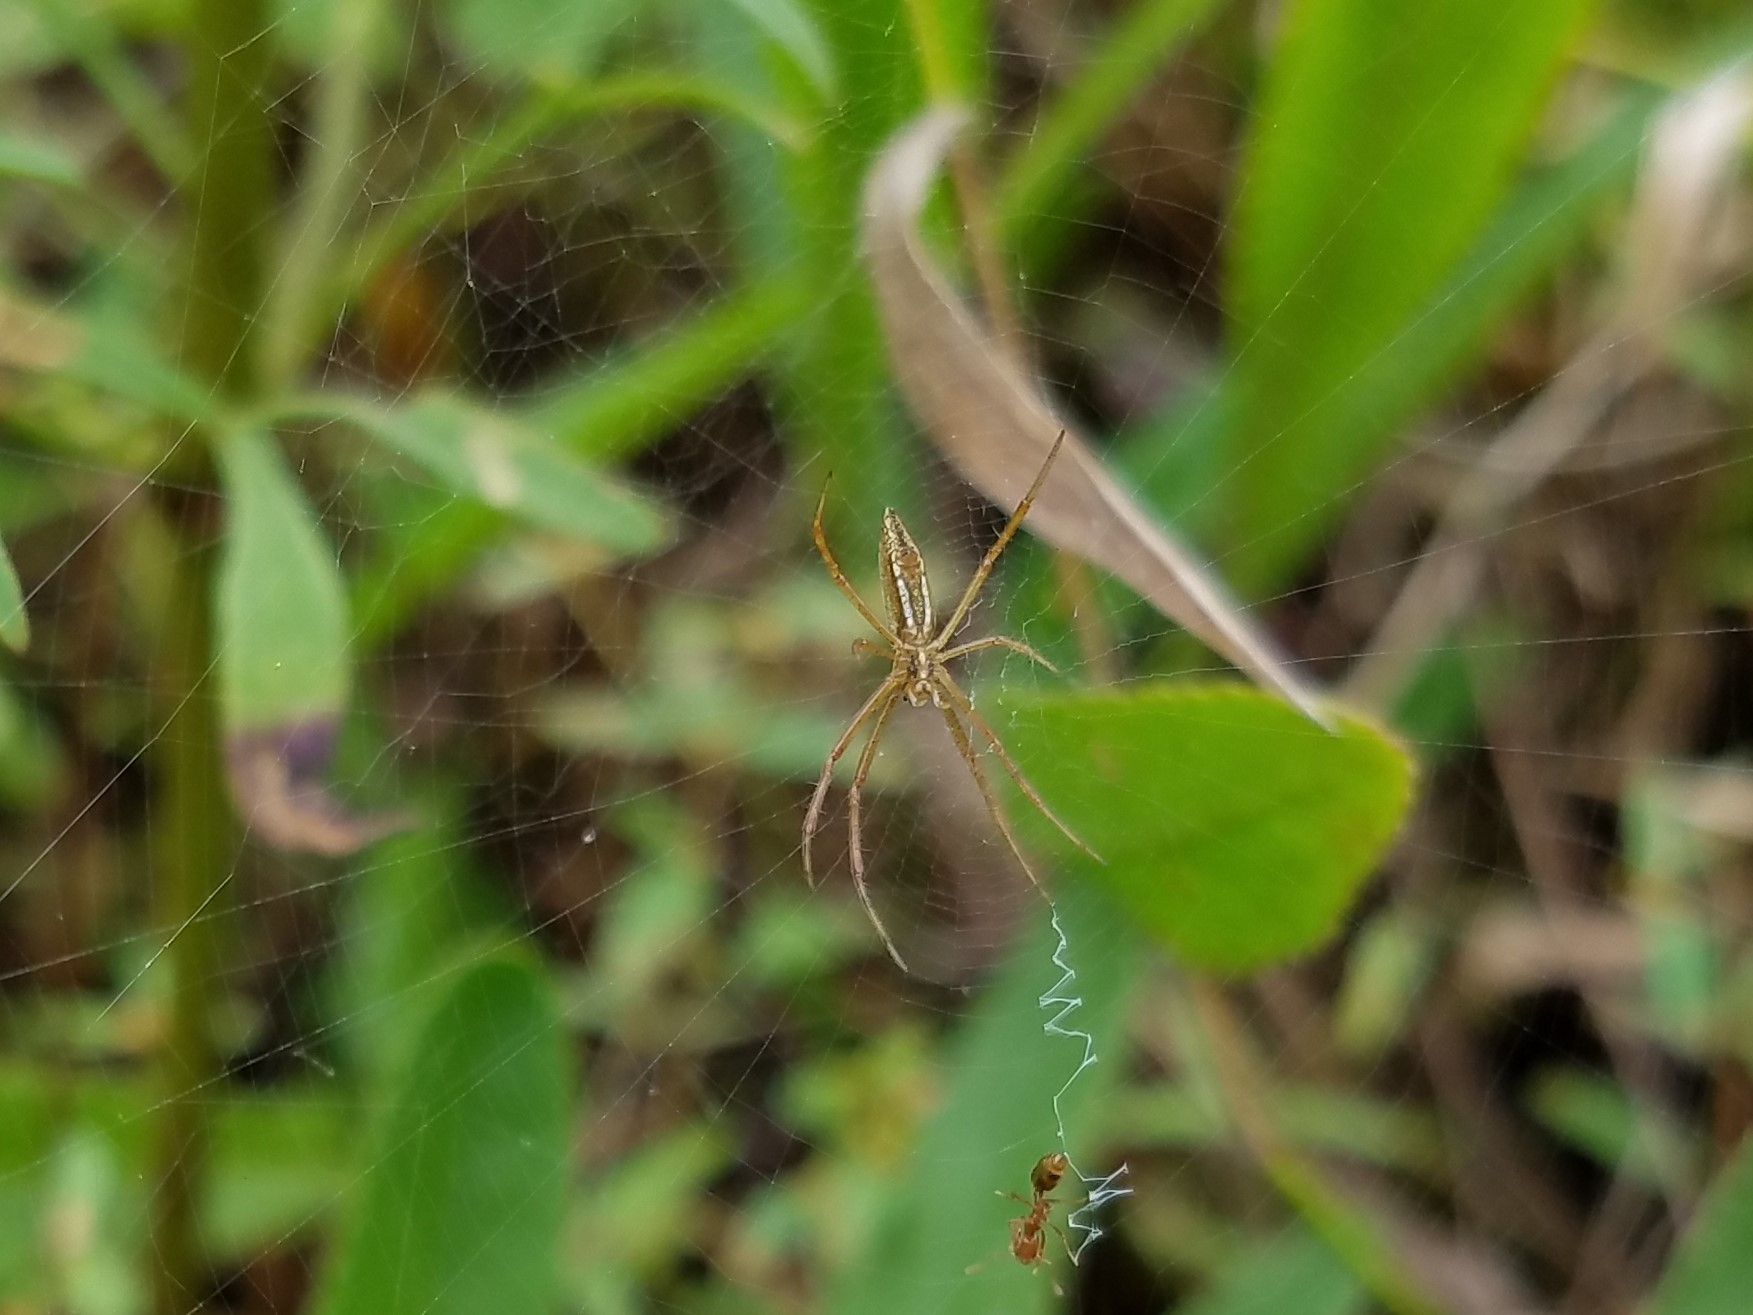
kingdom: Animalia
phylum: Arthropoda
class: Arachnida
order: Araneae
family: Araneidae
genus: Argiope
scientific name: Argiope trifasciata
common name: Banded garden spider
